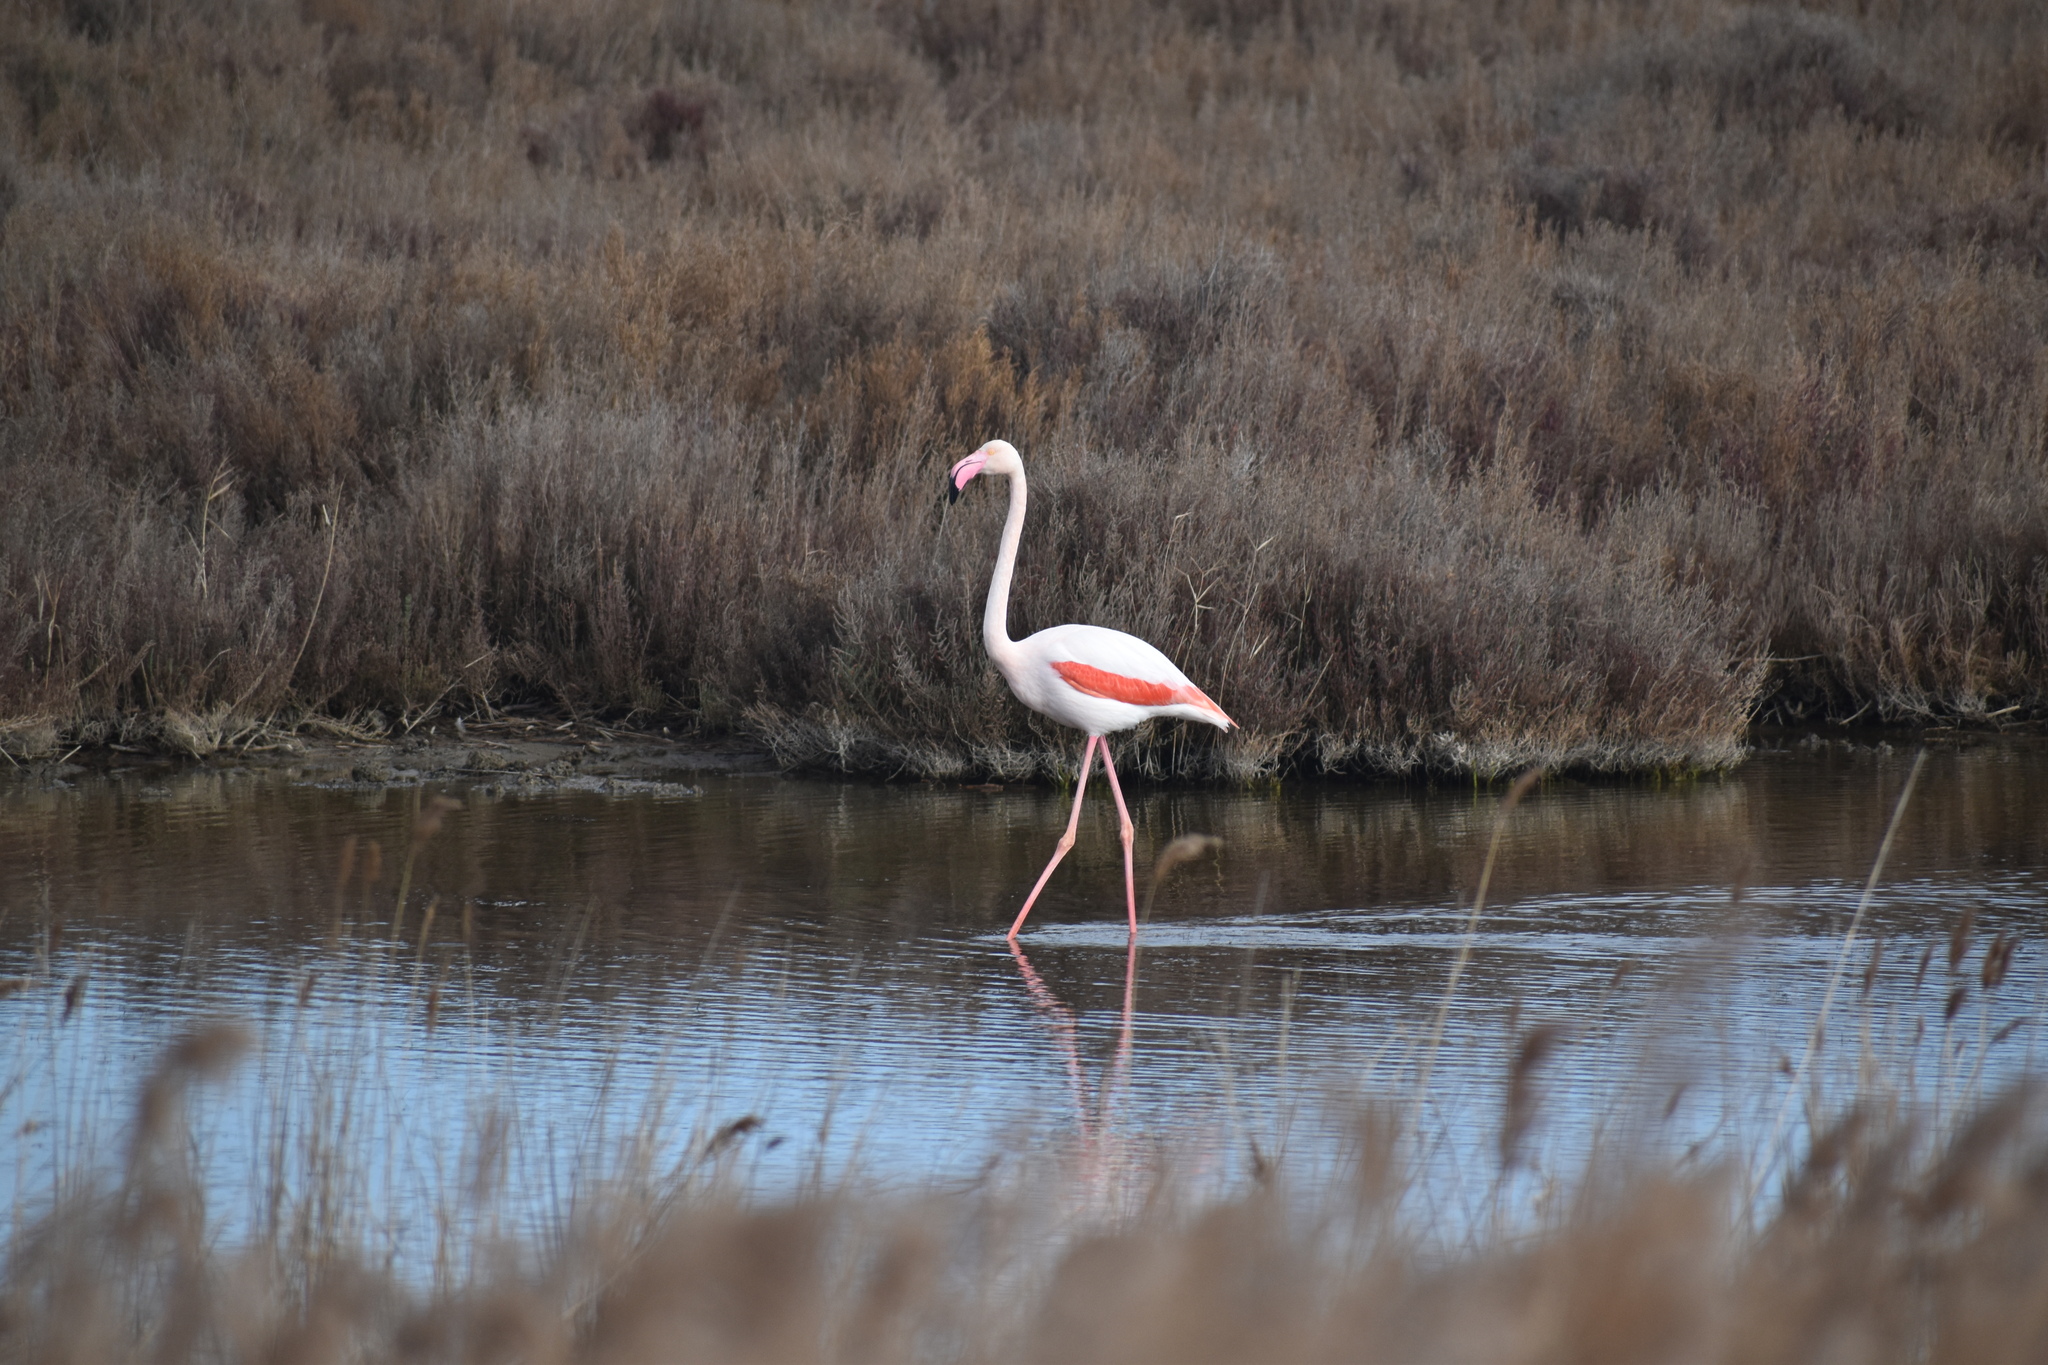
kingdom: Animalia
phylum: Chordata
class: Aves
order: Phoenicopteriformes
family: Phoenicopteridae
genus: Phoenicopterus
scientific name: Phoenicopterus roseus
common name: Greater flamingo
